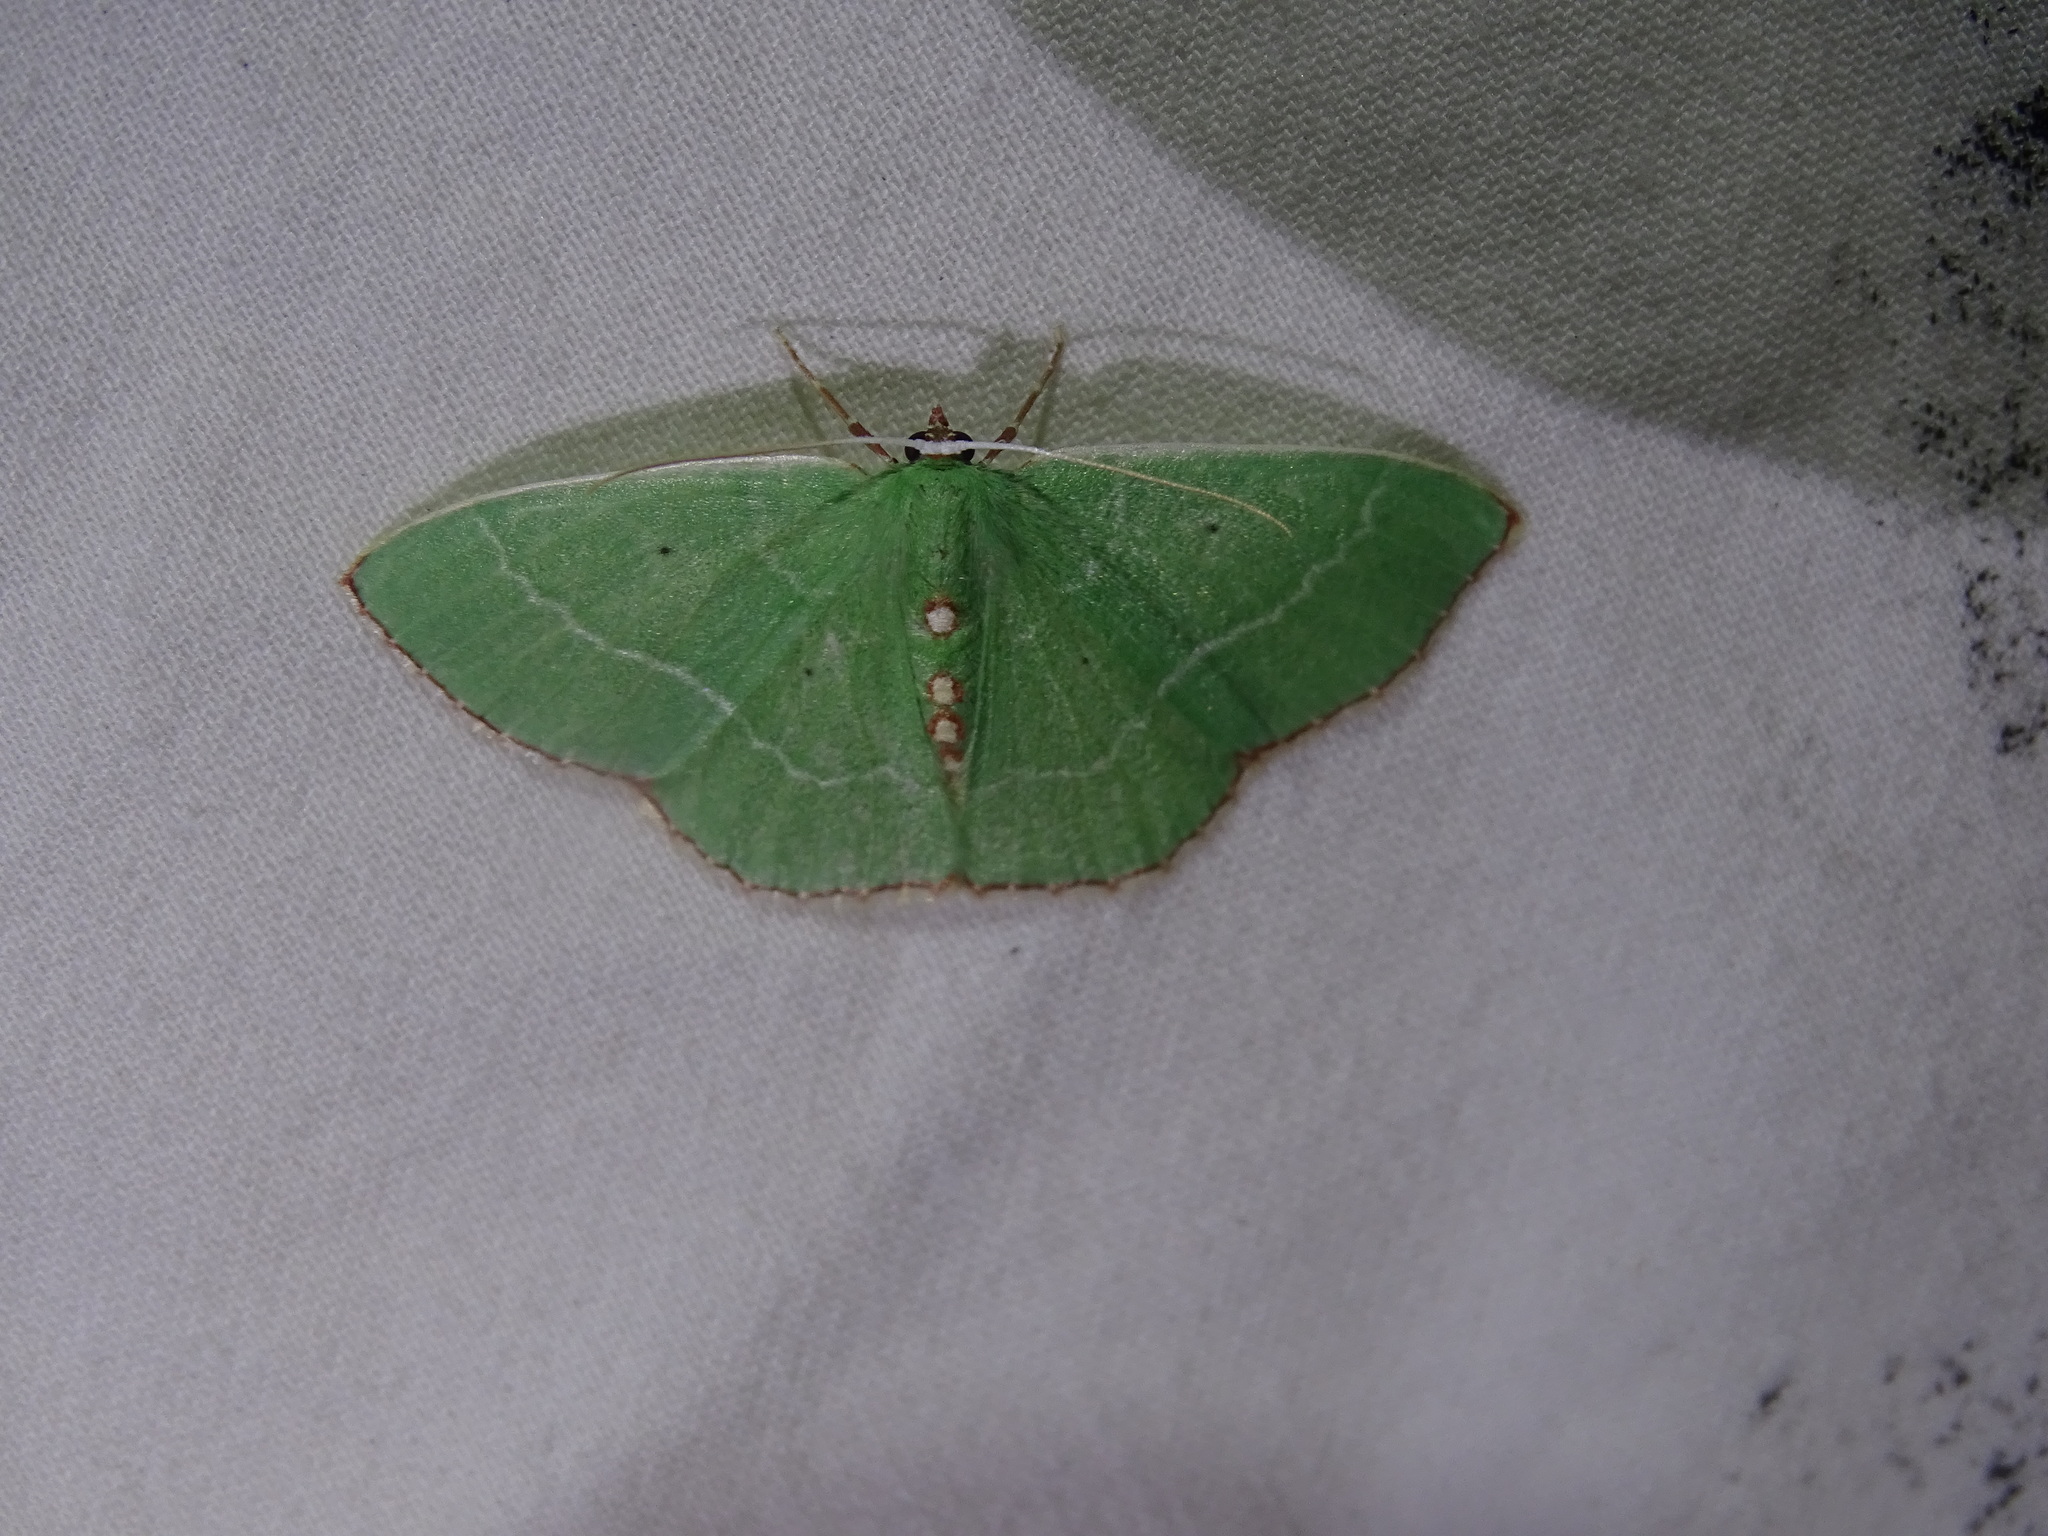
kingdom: Animalia
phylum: Arthropoda
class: Insecta
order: Lepidoptera
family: Geometridae
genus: Nemoria
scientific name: Nemoria lixaria
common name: Red-bordered emerald
